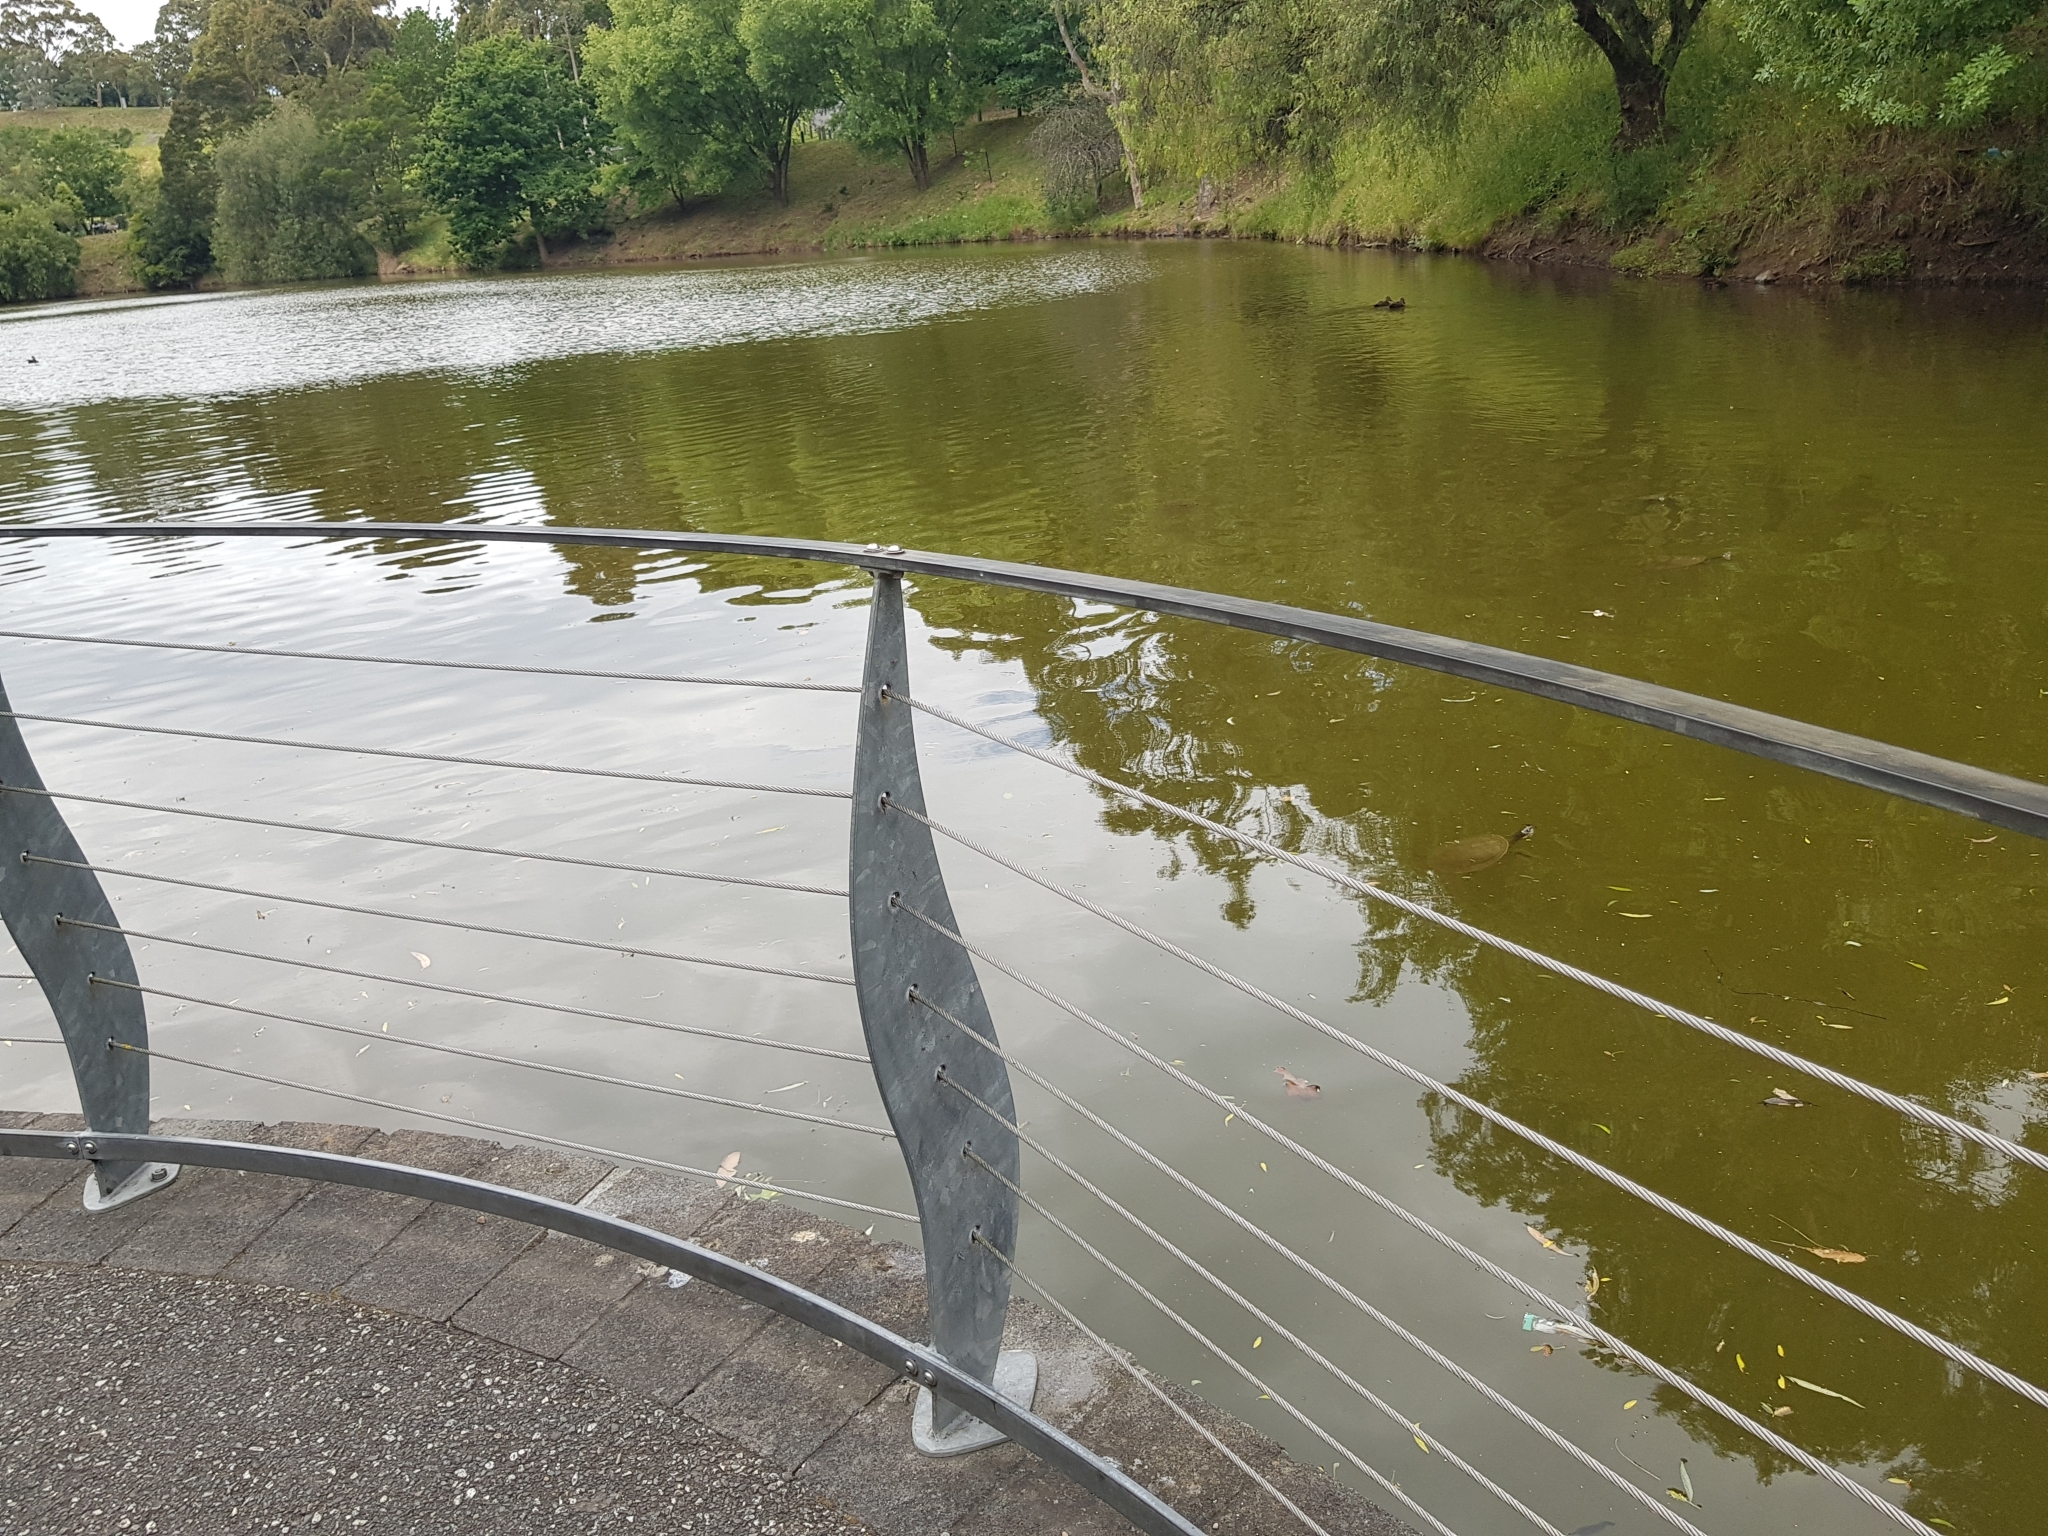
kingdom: Animalia
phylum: Chordata
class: Testudines
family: Chelidae
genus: Emydura
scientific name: Emydura macquarii
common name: Murray river turtle
